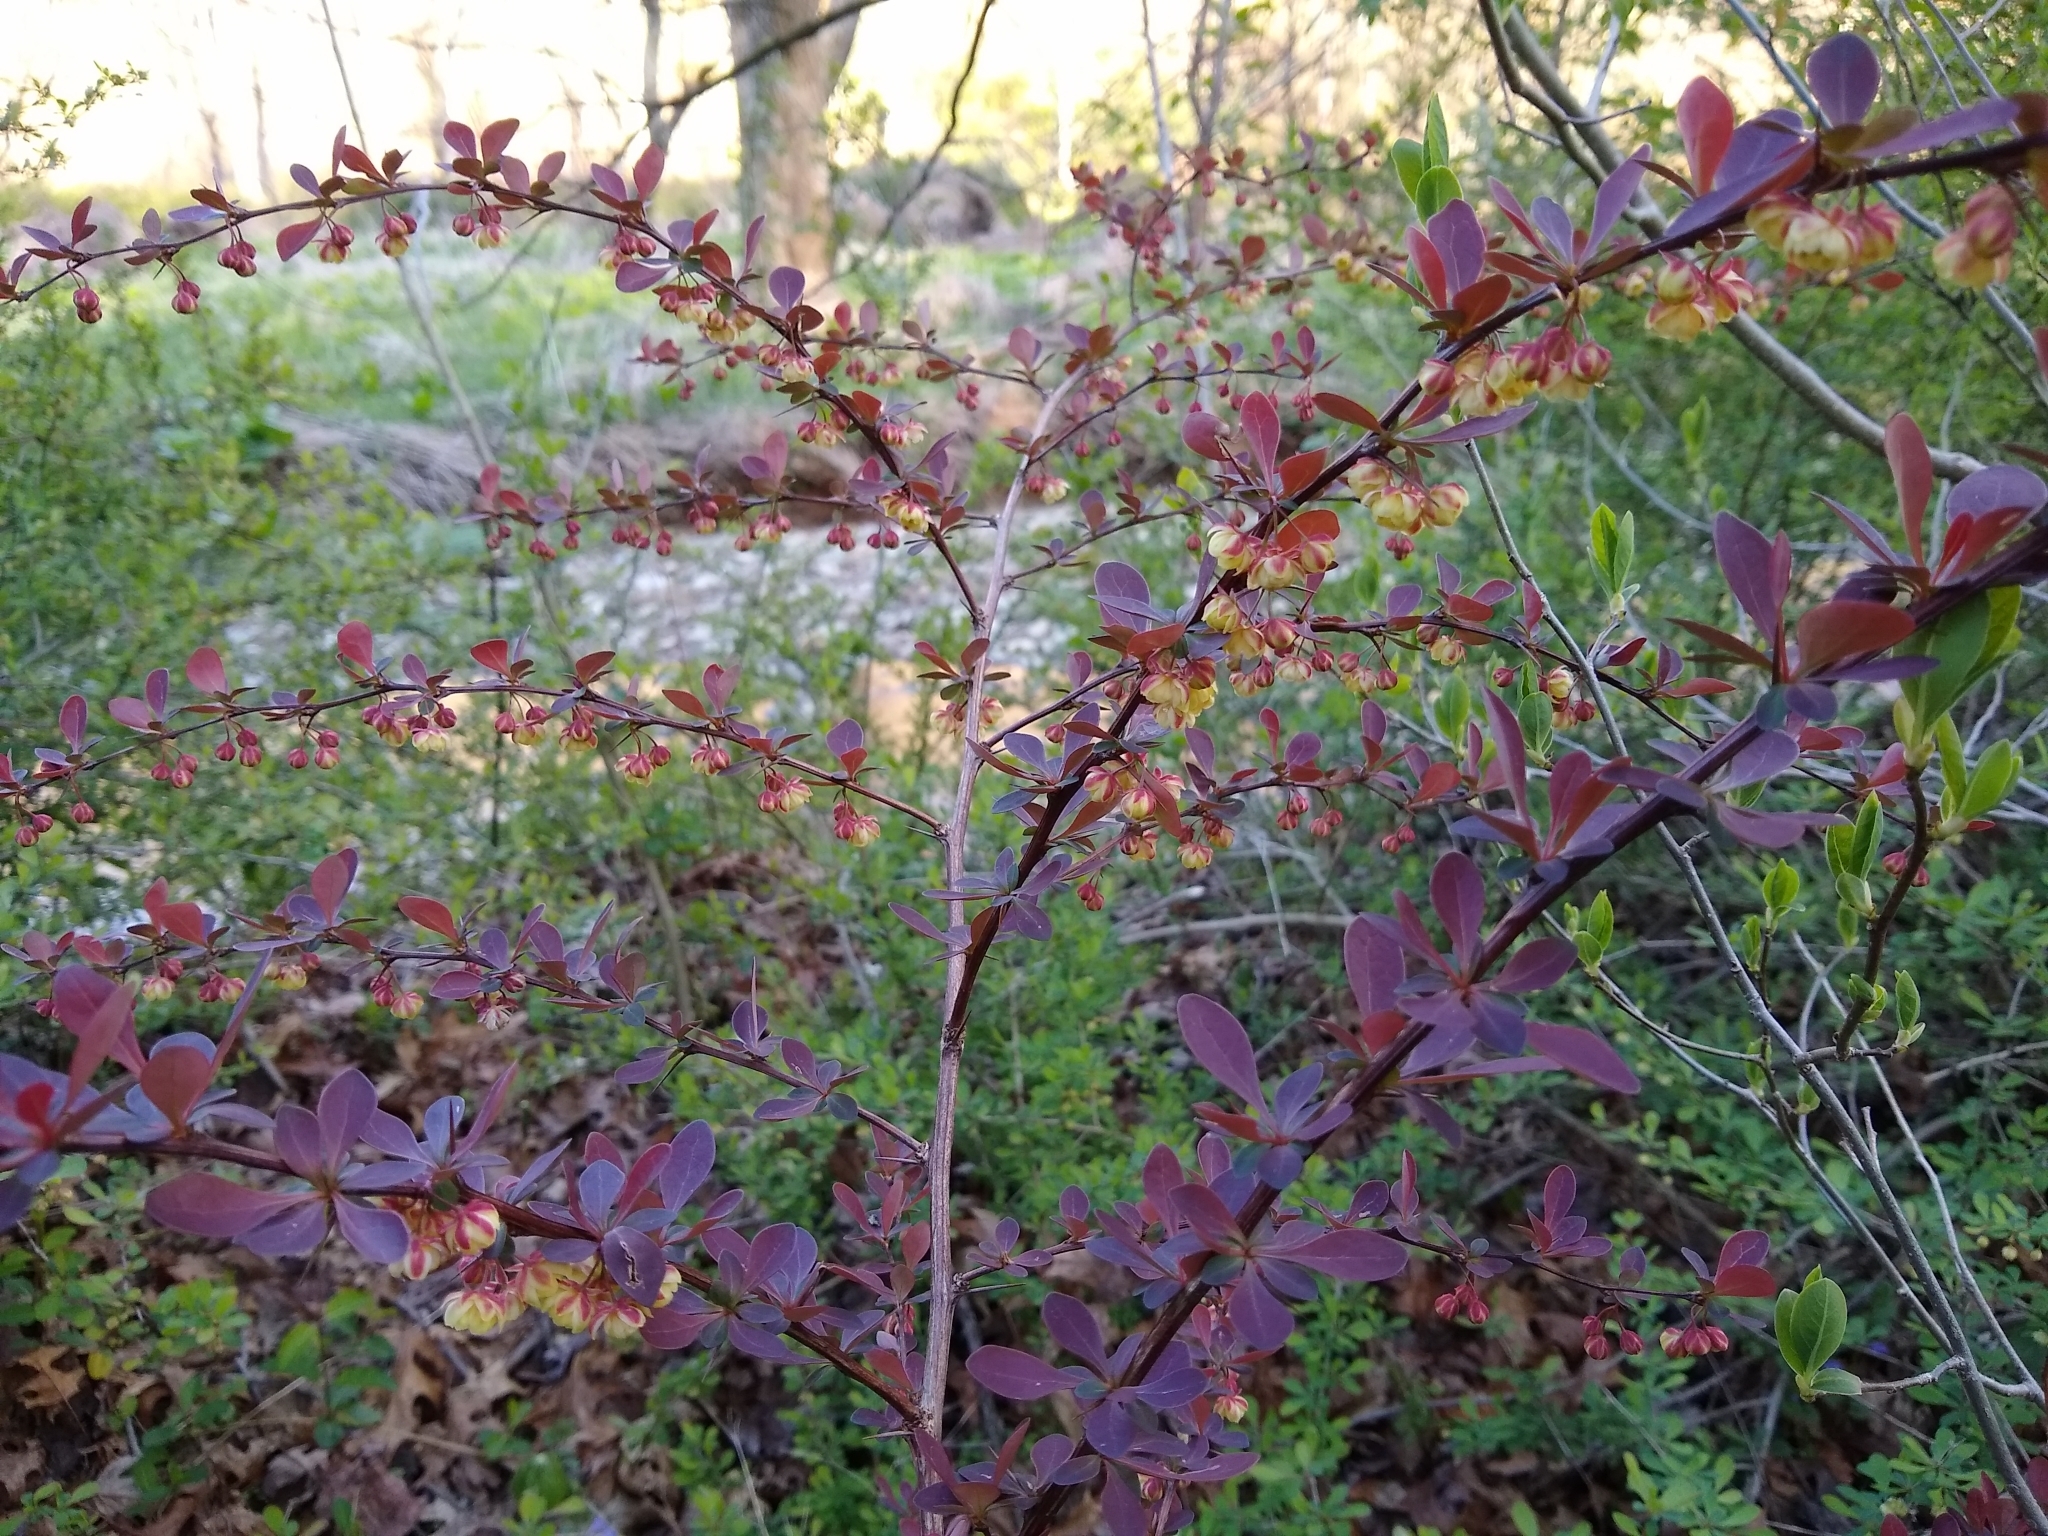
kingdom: Plantae
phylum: Tracheophyta
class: Magnoliopsida
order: Ranunculales
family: Berberidaceae
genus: Berberis
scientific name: Berberis thunbergii
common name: Japanese barberry
